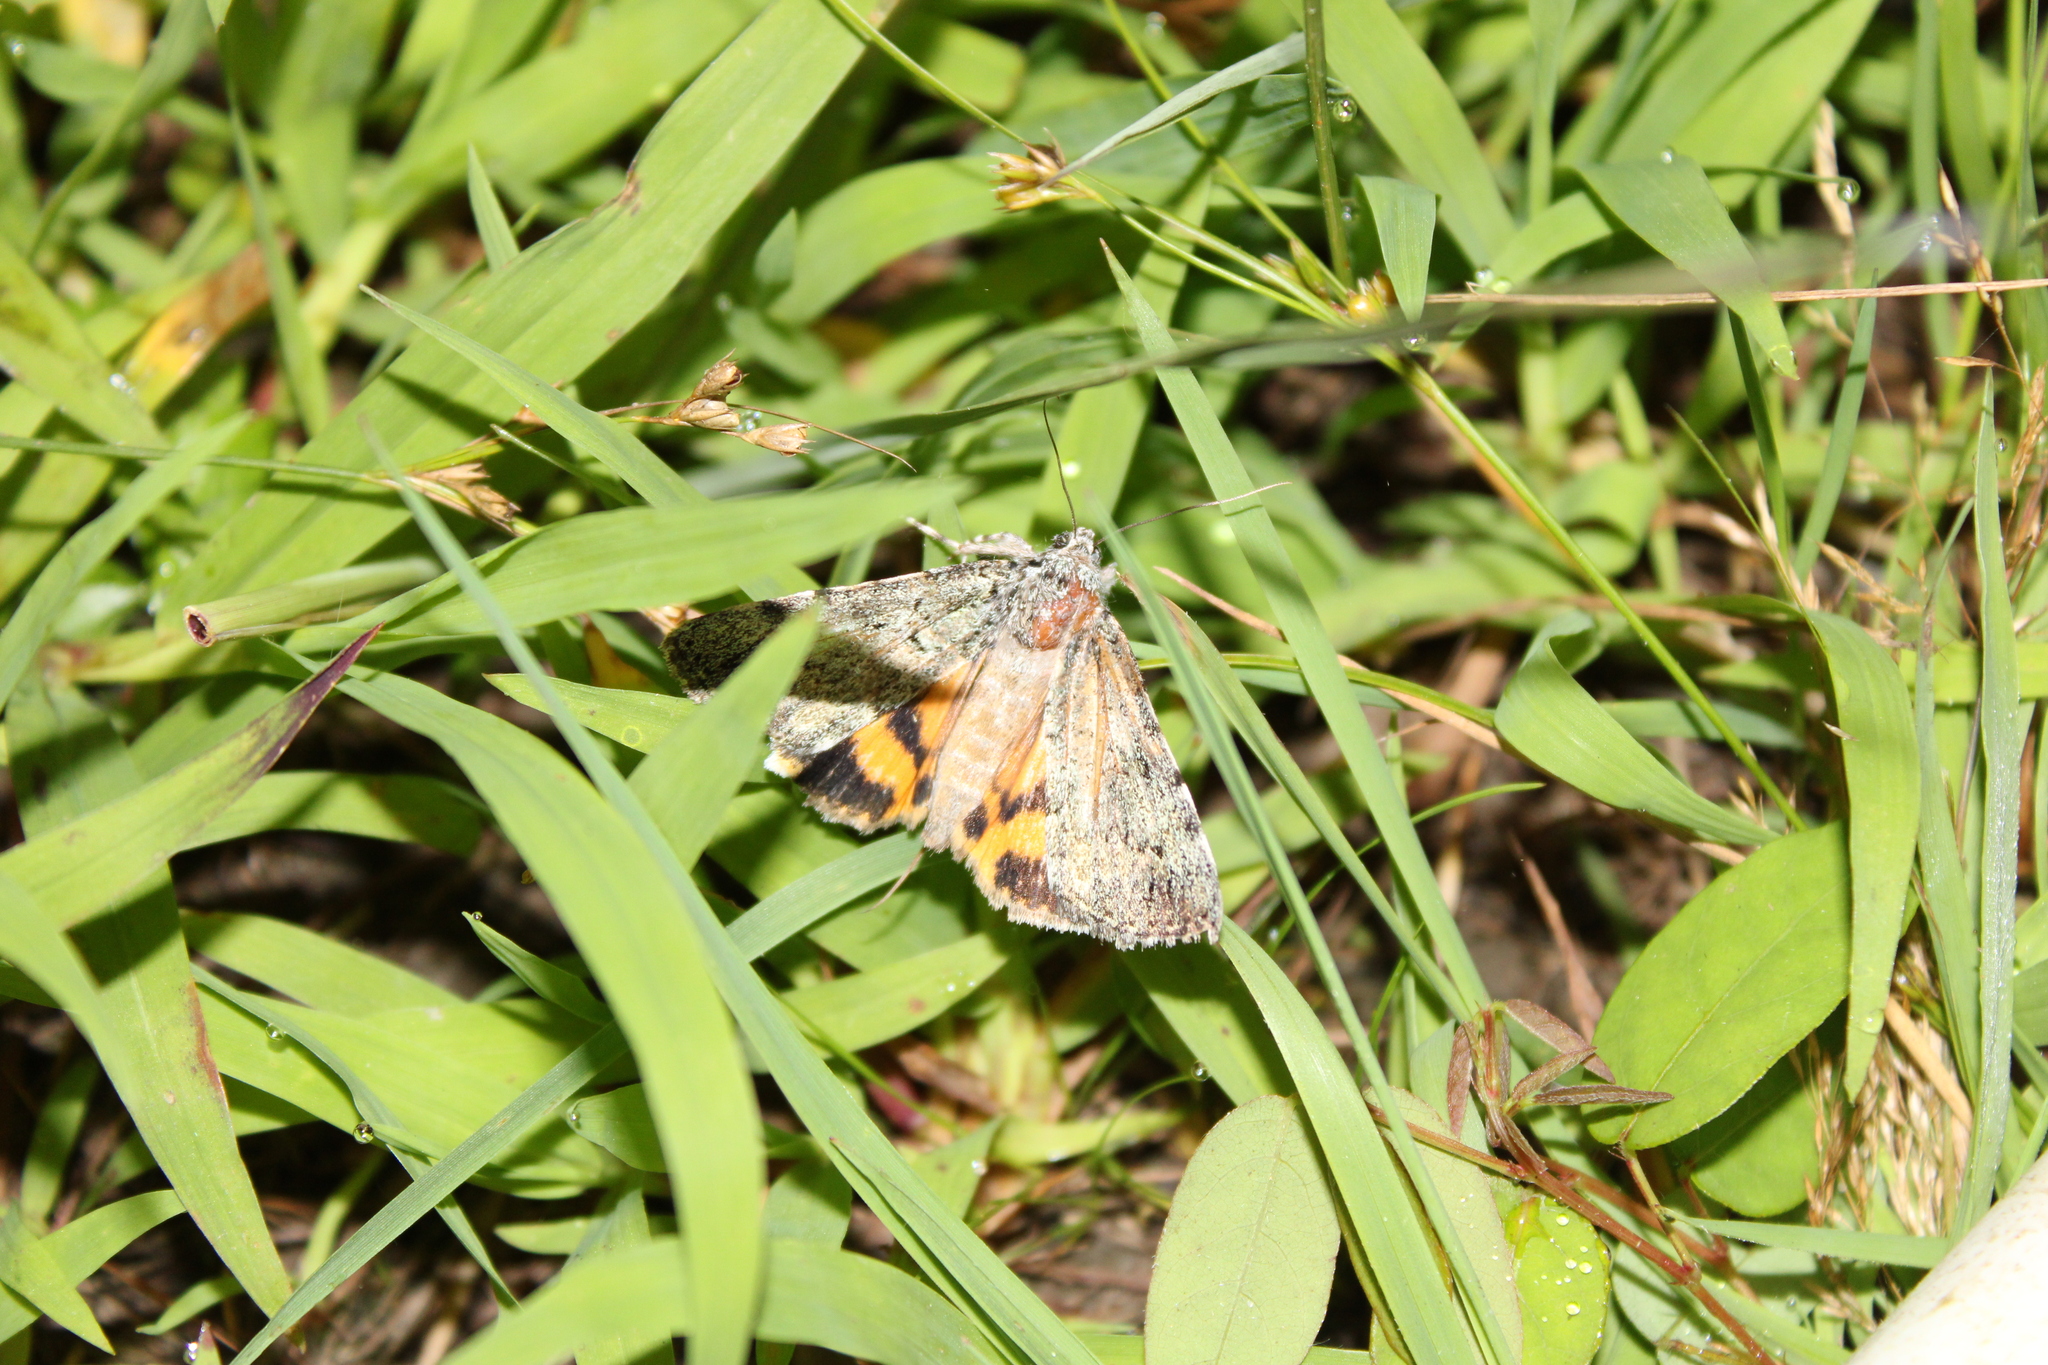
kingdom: Animalia
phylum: Arthropoda
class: Insecta
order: Lepidoptera
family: Erebidae
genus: Catocala
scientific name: Catocala connubialis
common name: Connubial underwing
